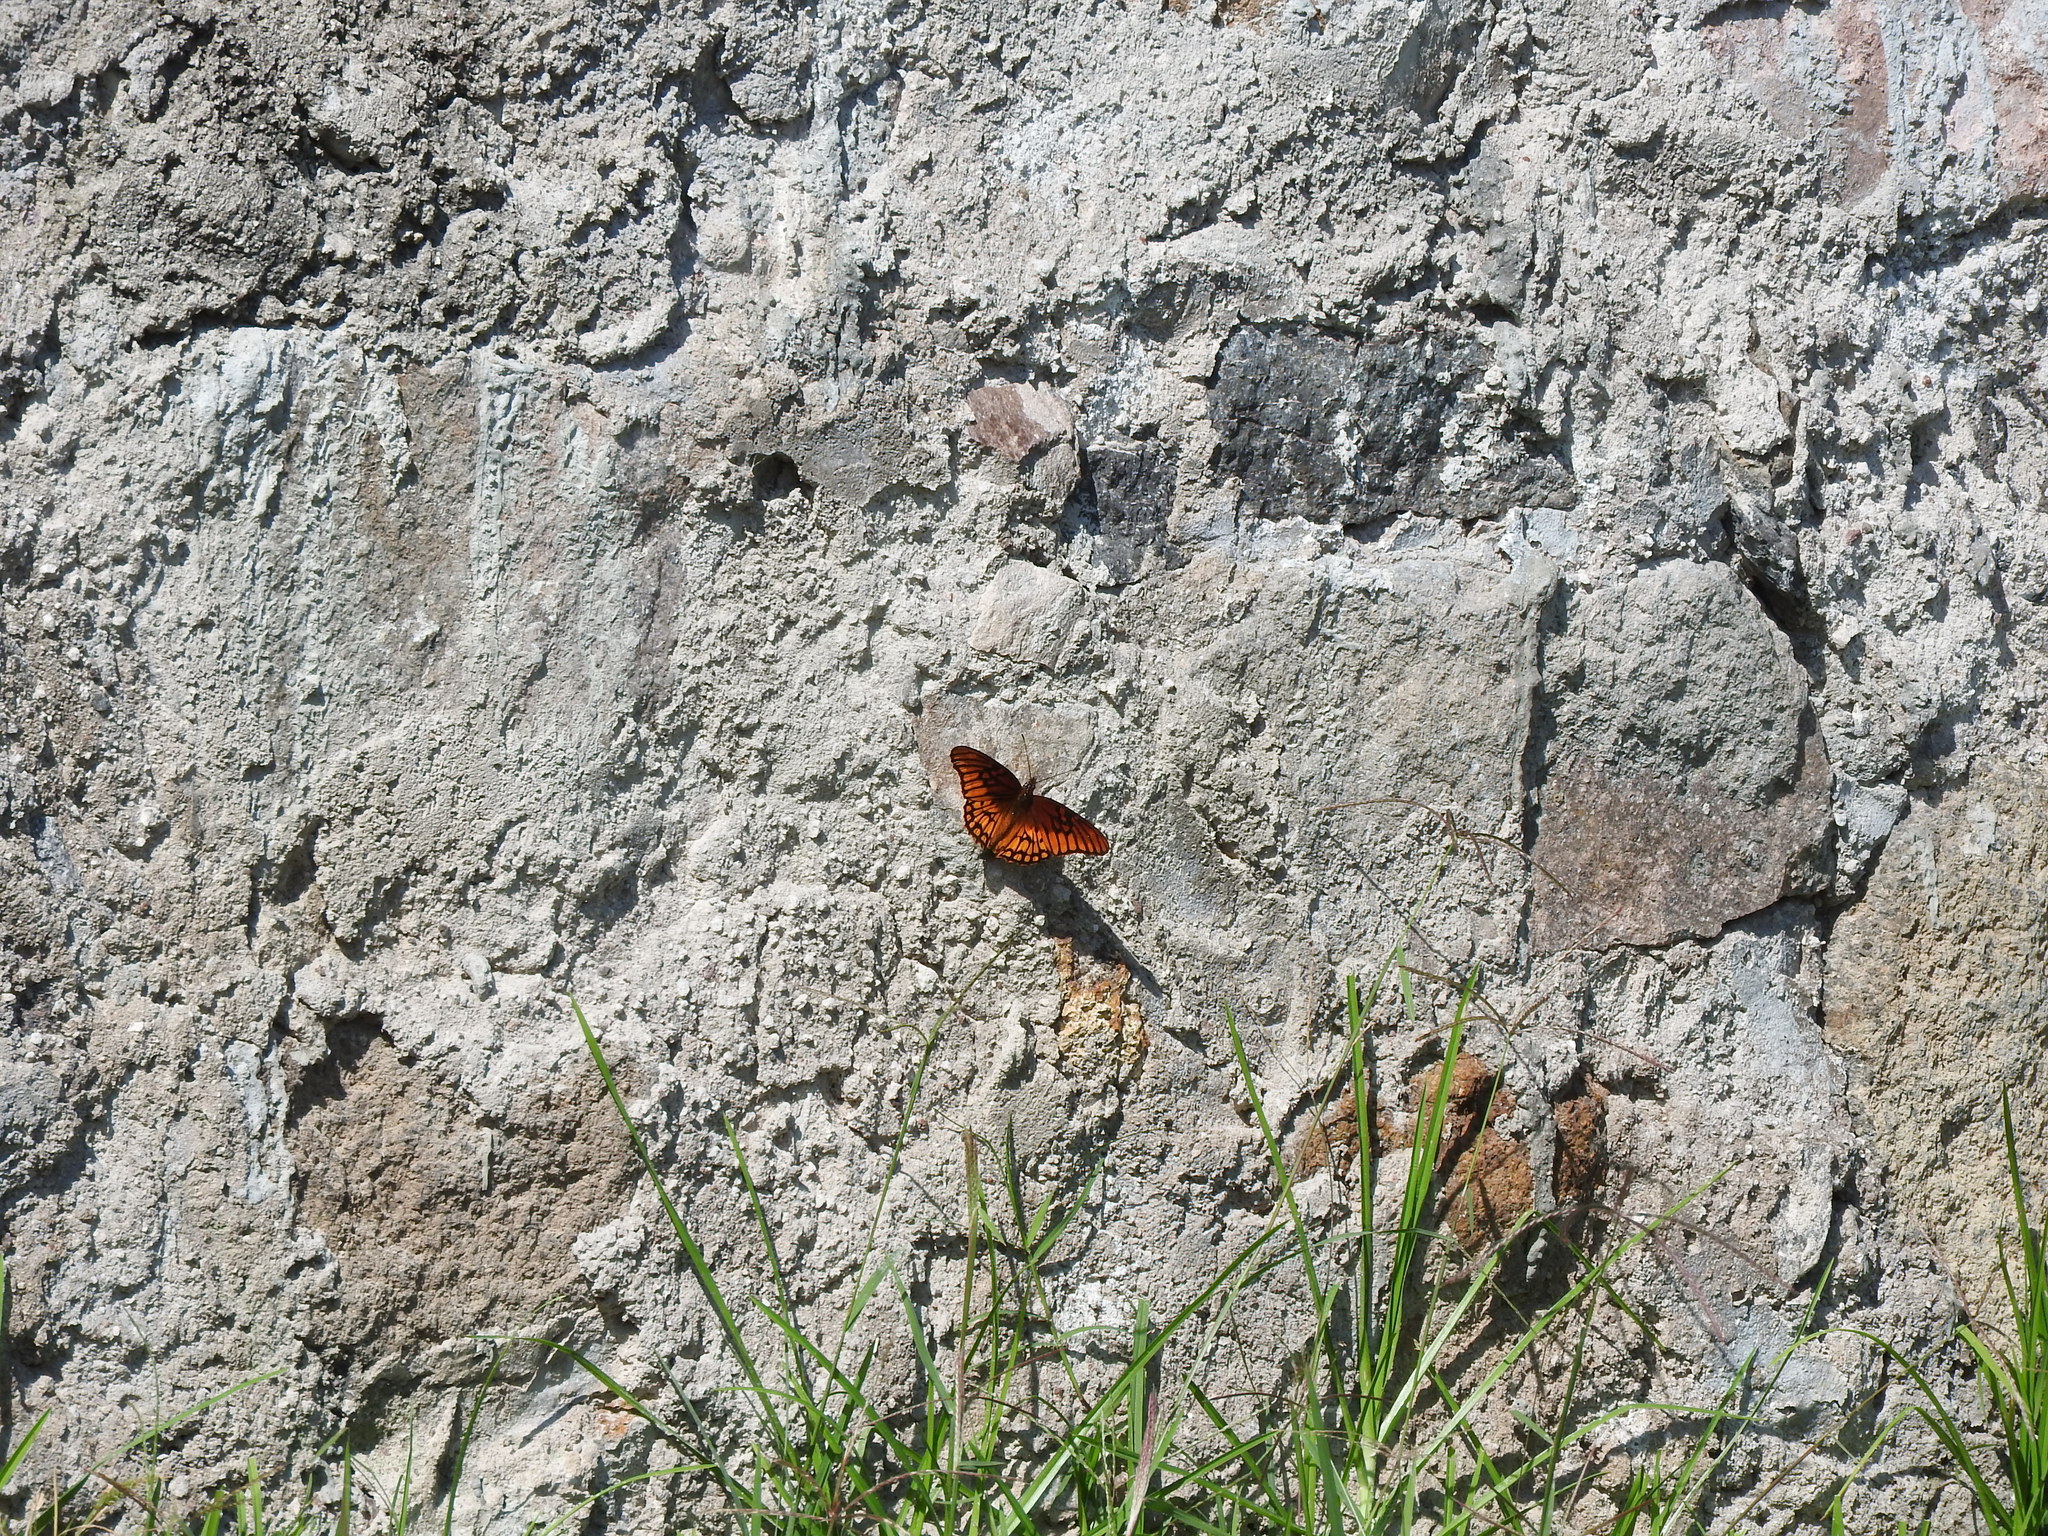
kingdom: Animalia
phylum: Arthropoda
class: Insecta
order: Lepidoptera
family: Nymphalidae
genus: Dione
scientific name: Dione moneta
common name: Mexican silverspot
